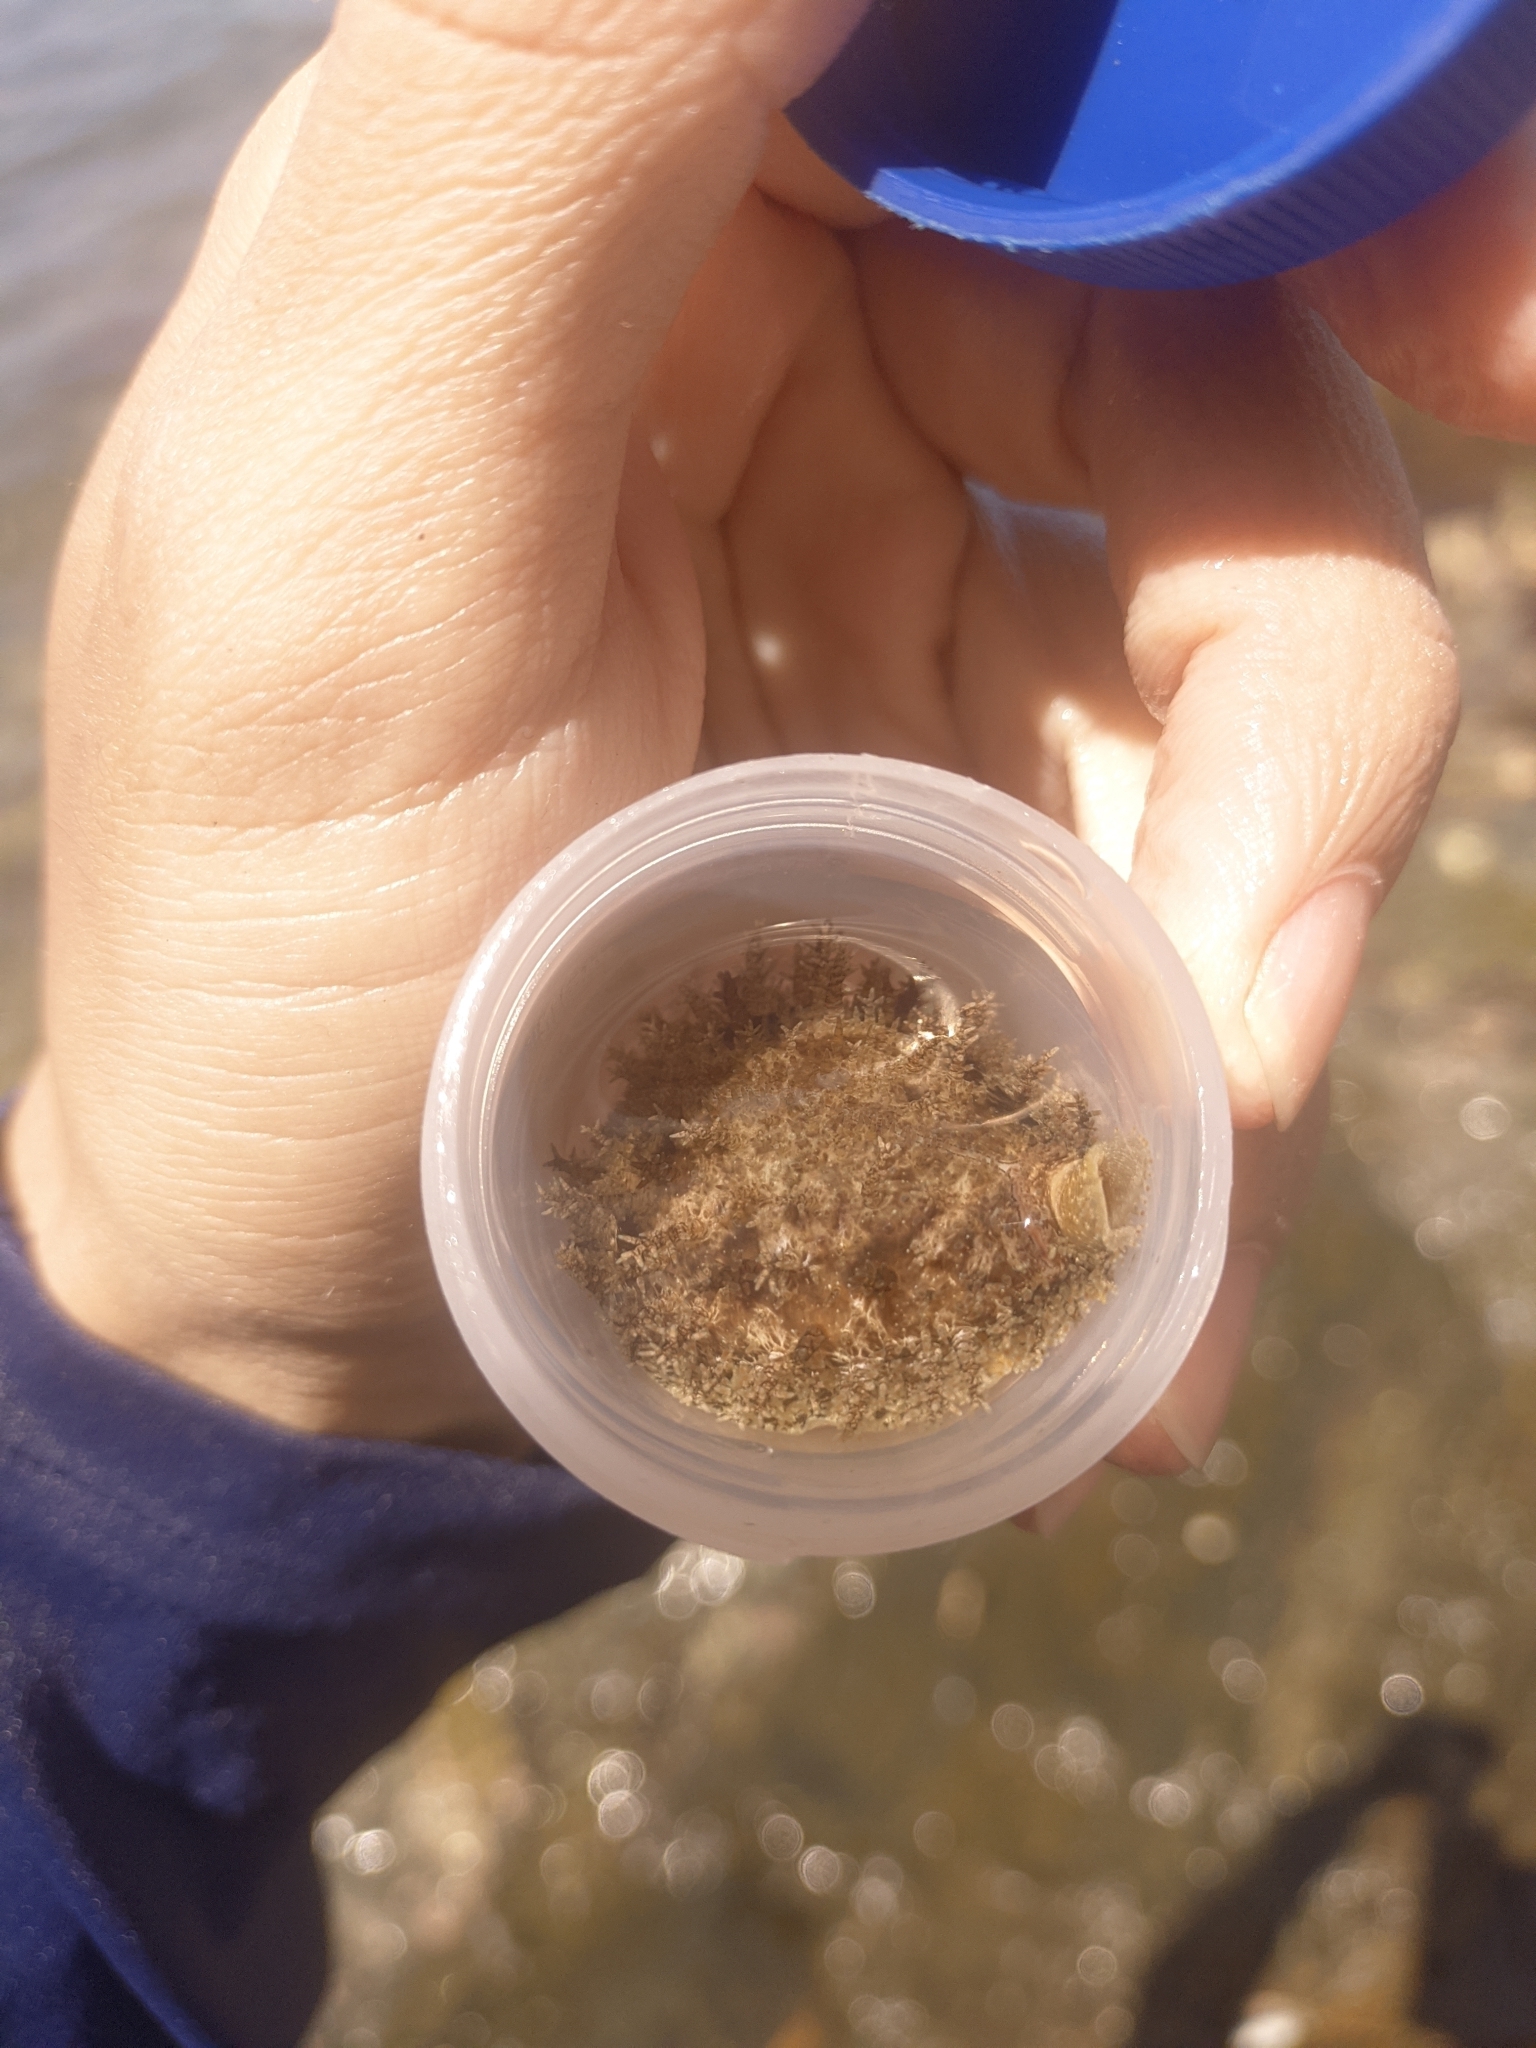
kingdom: Animalia
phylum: Mollusca
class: Gastropoda
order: Littorinimorpha
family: Cypraeidae
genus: Naria
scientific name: Naria turdus
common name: Thrush cowrie
